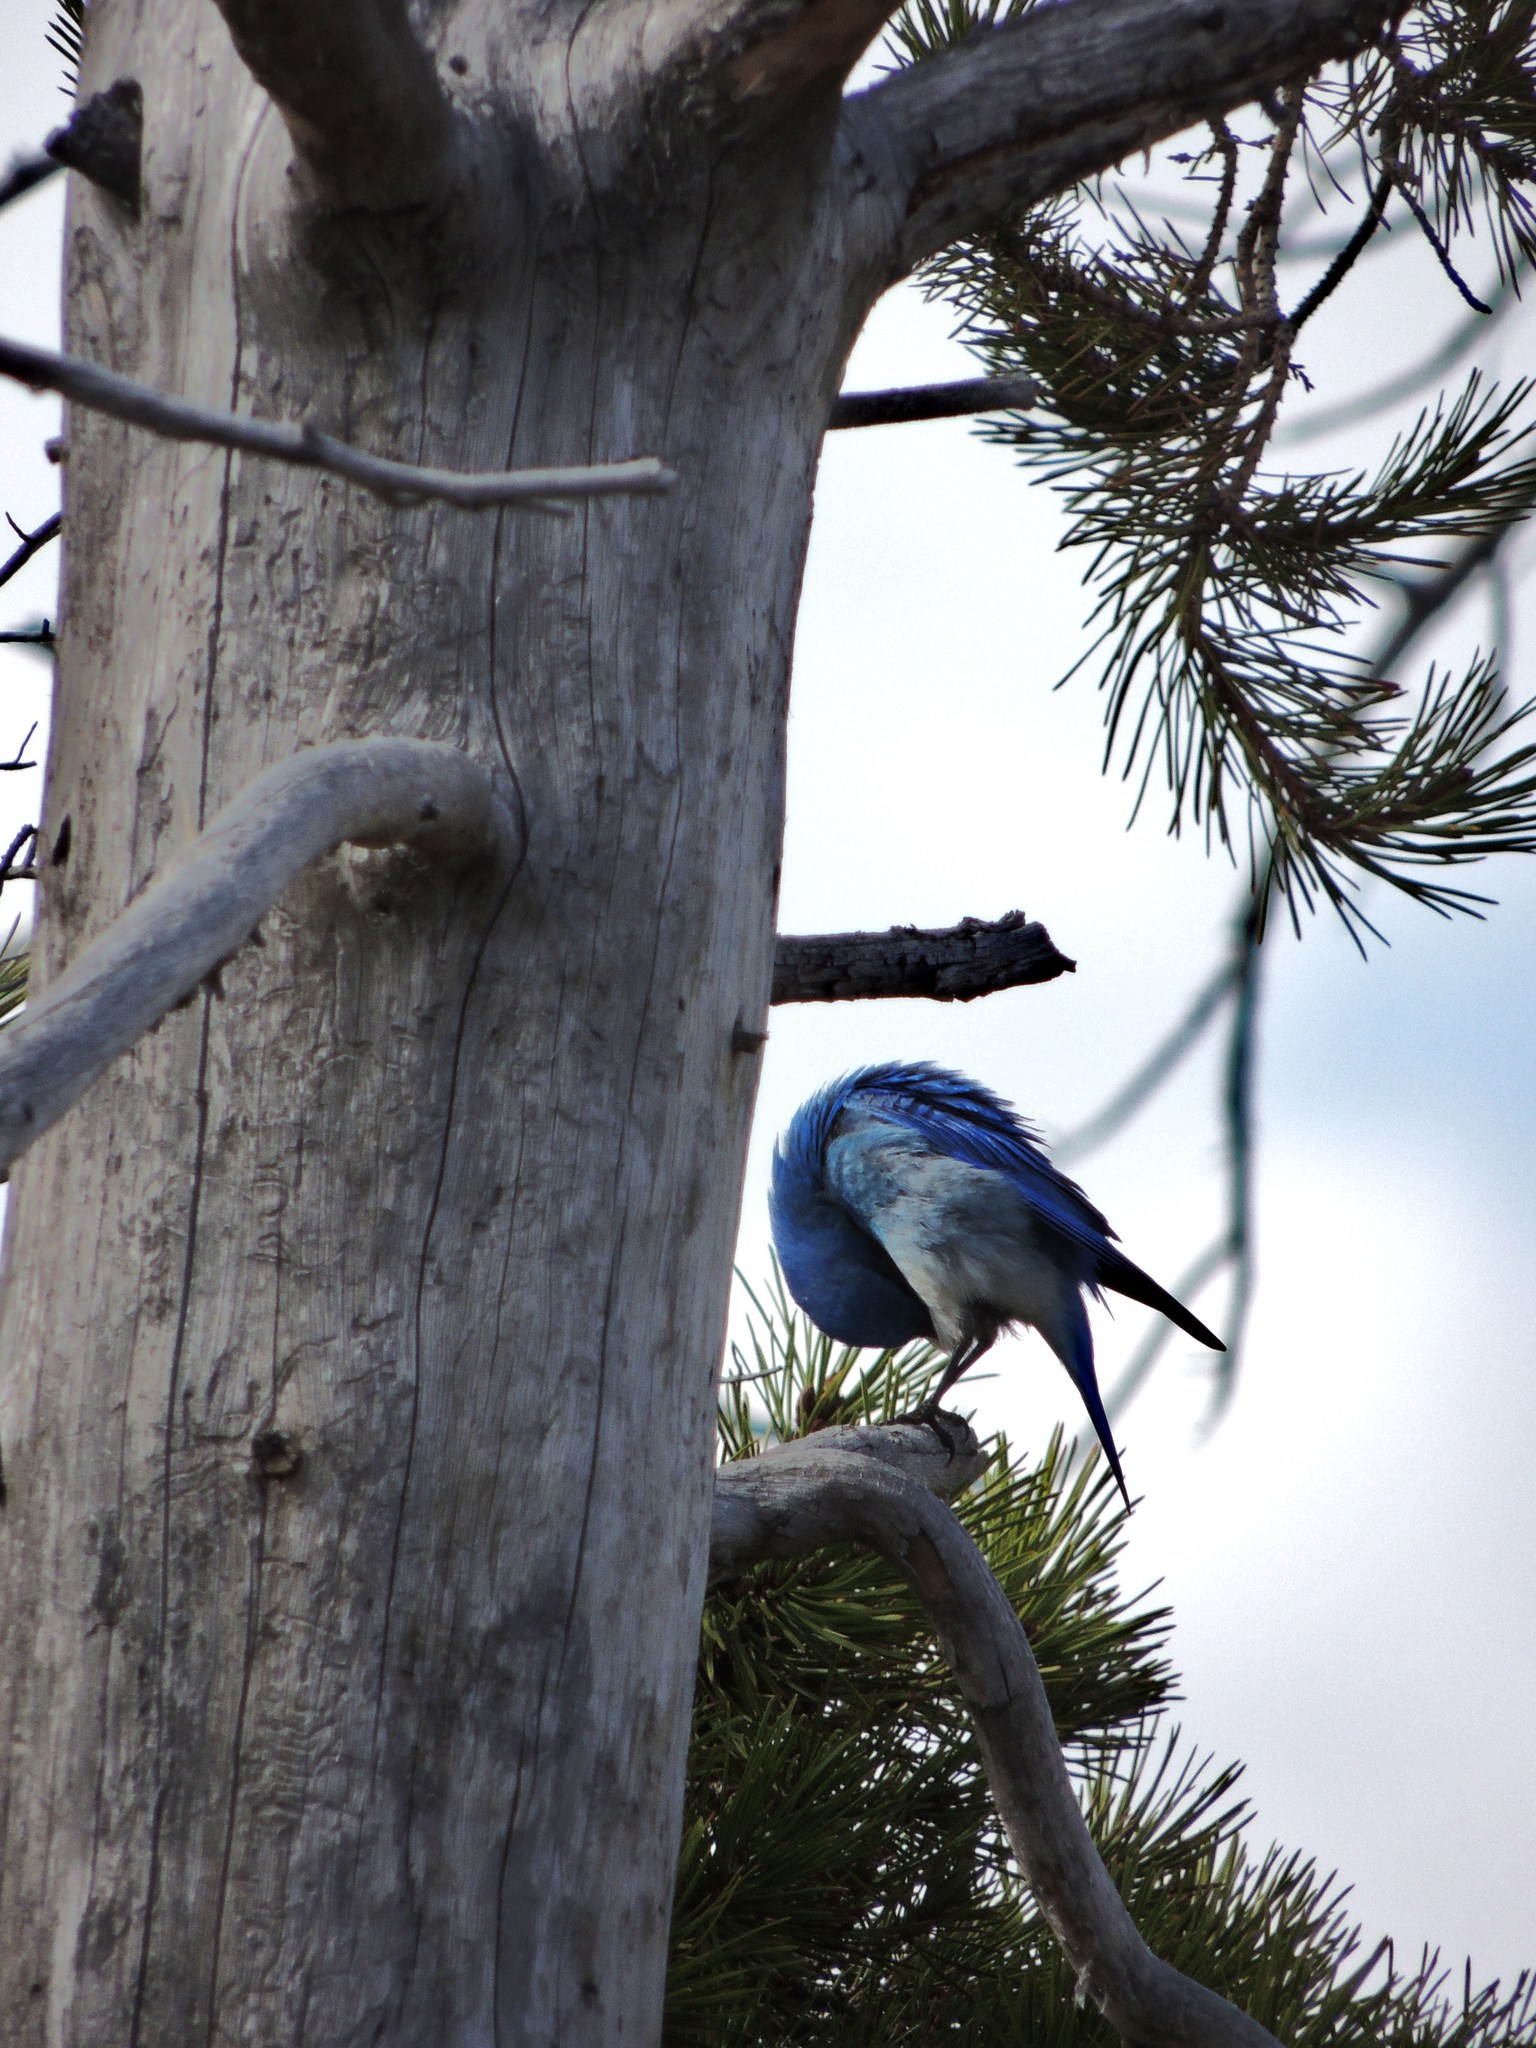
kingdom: Animalia
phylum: Chordata
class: Aves
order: Passeriformes
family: Turdidae
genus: Sialia
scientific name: Sialia currucoides
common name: Mountain bluebird
